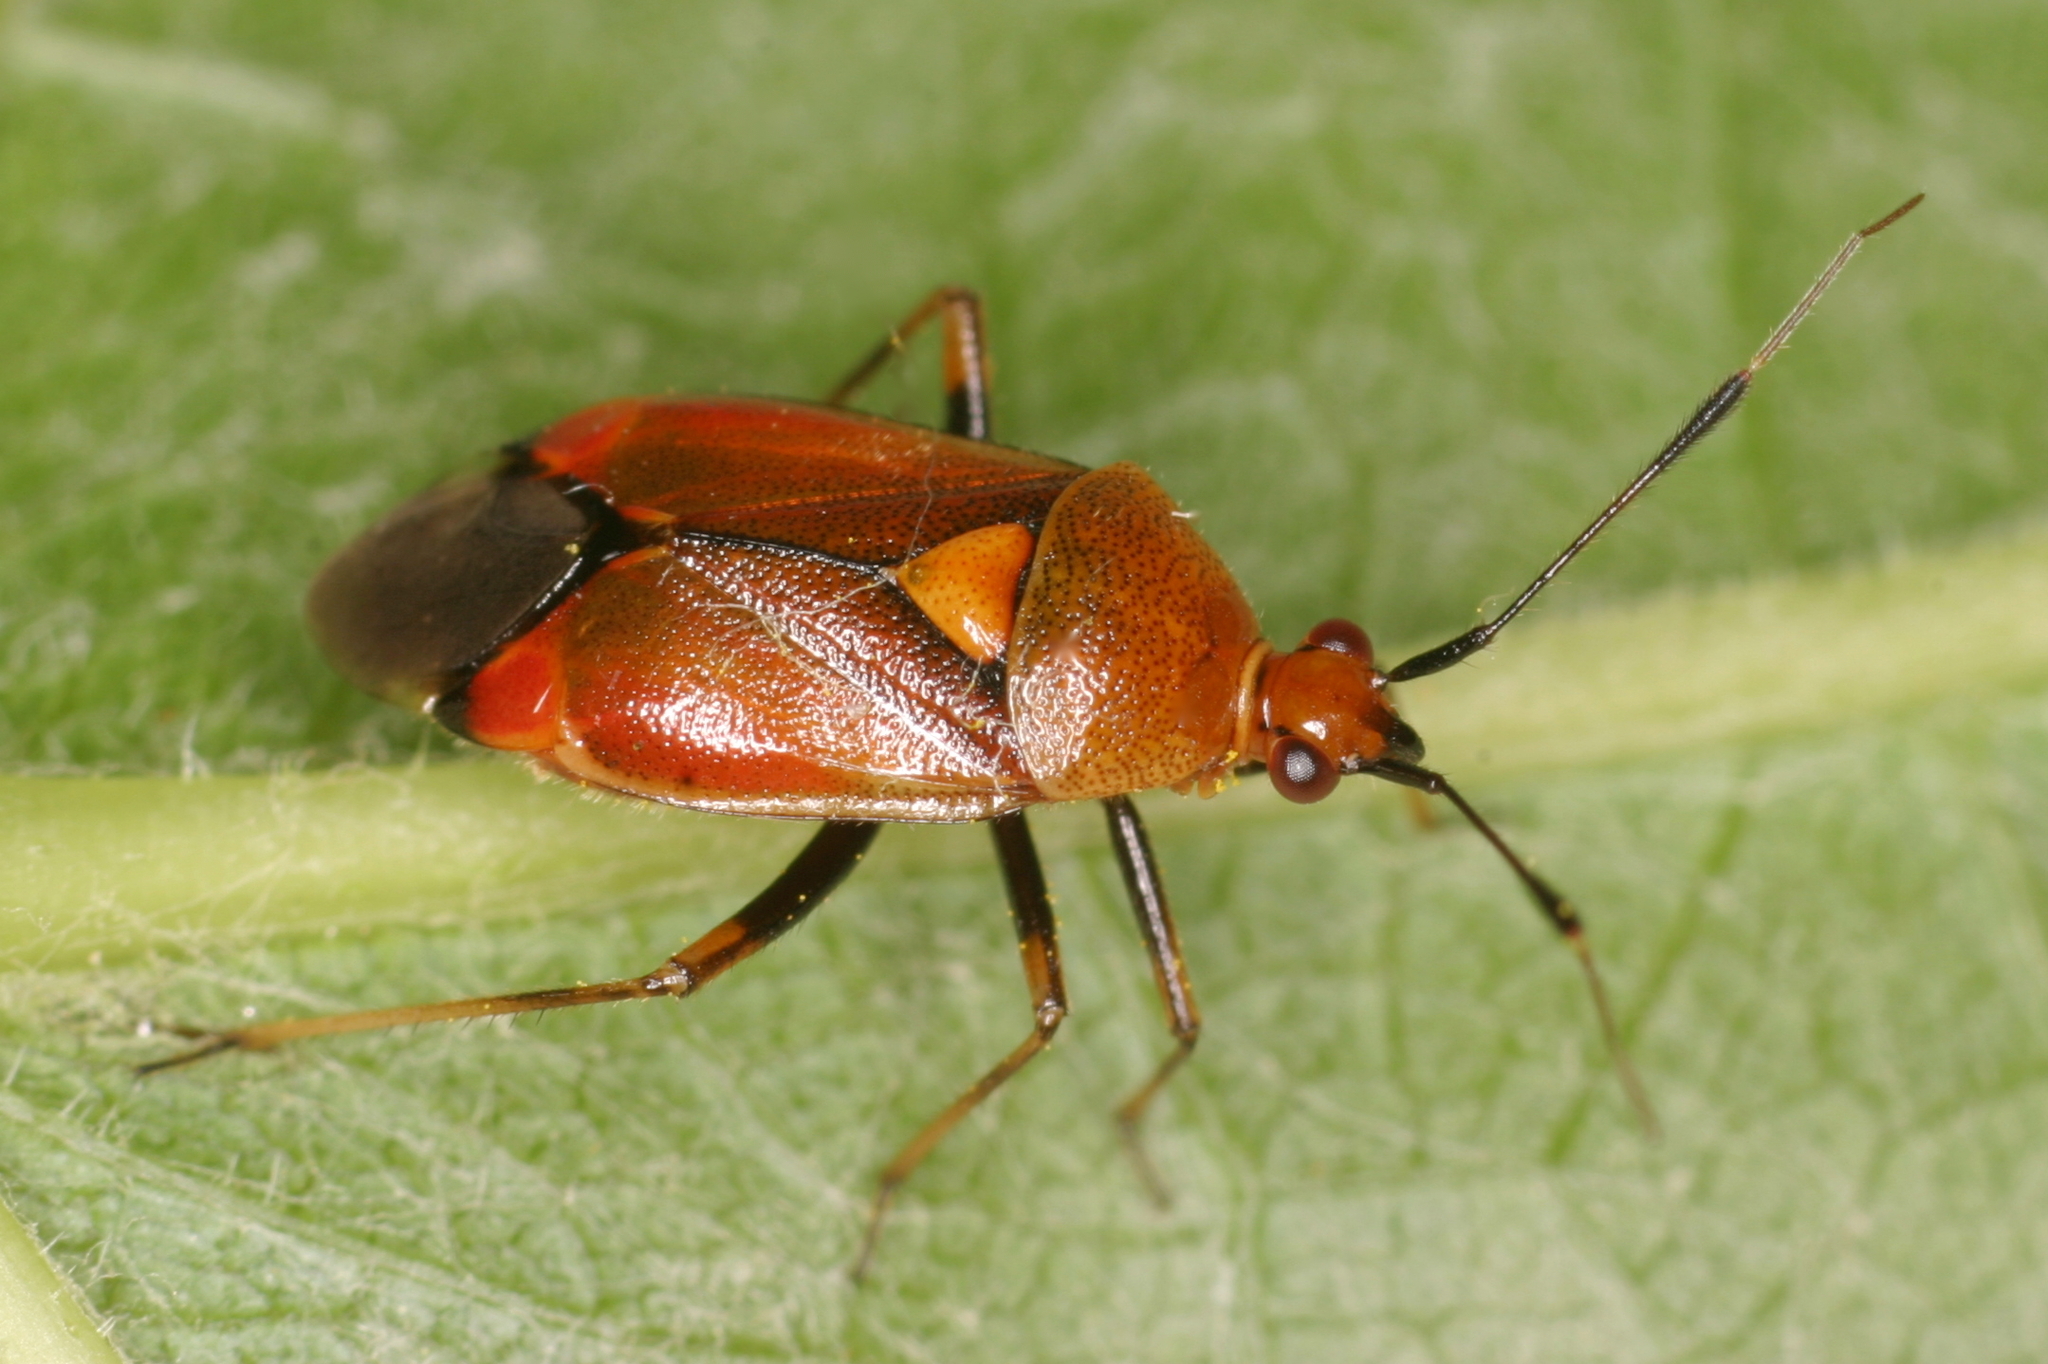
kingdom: Animalia
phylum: Arthropoda
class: Insecta
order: Hemiptera
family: Miridae
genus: Deraeocoris
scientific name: Deraeocoris ruber
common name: Plant bug
